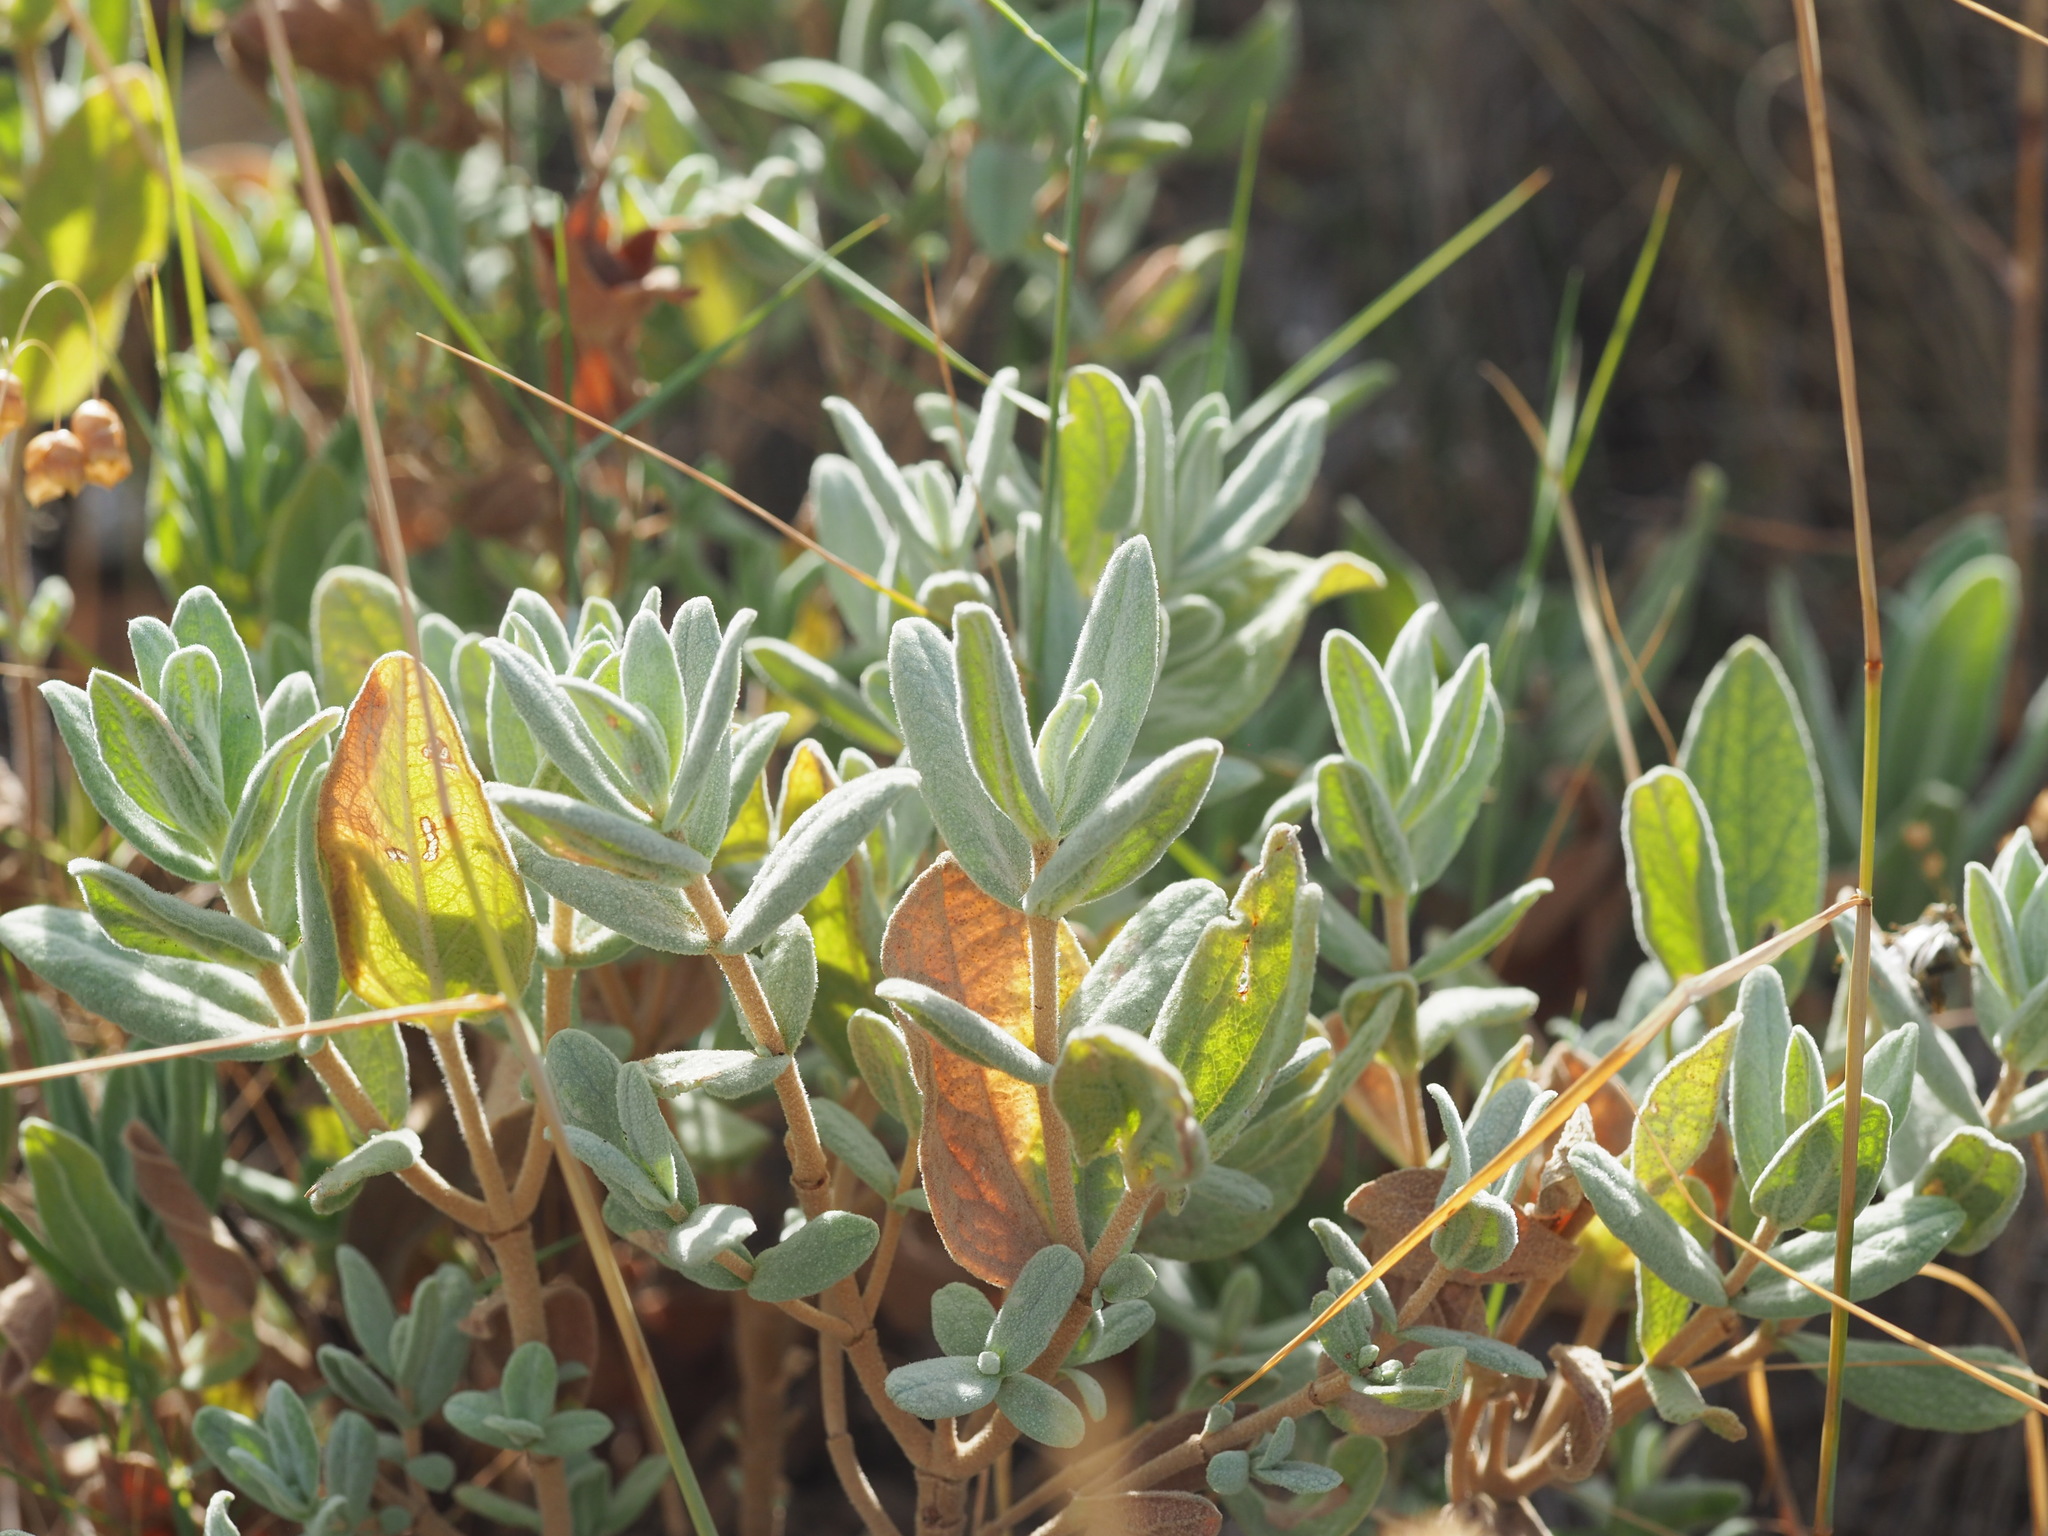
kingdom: Plantae
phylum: Tracheophyta
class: Magnoliopsida
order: Malvales
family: Cistaceae
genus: Cistus
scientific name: Cistus albidus
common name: White-leaf rock-rose
